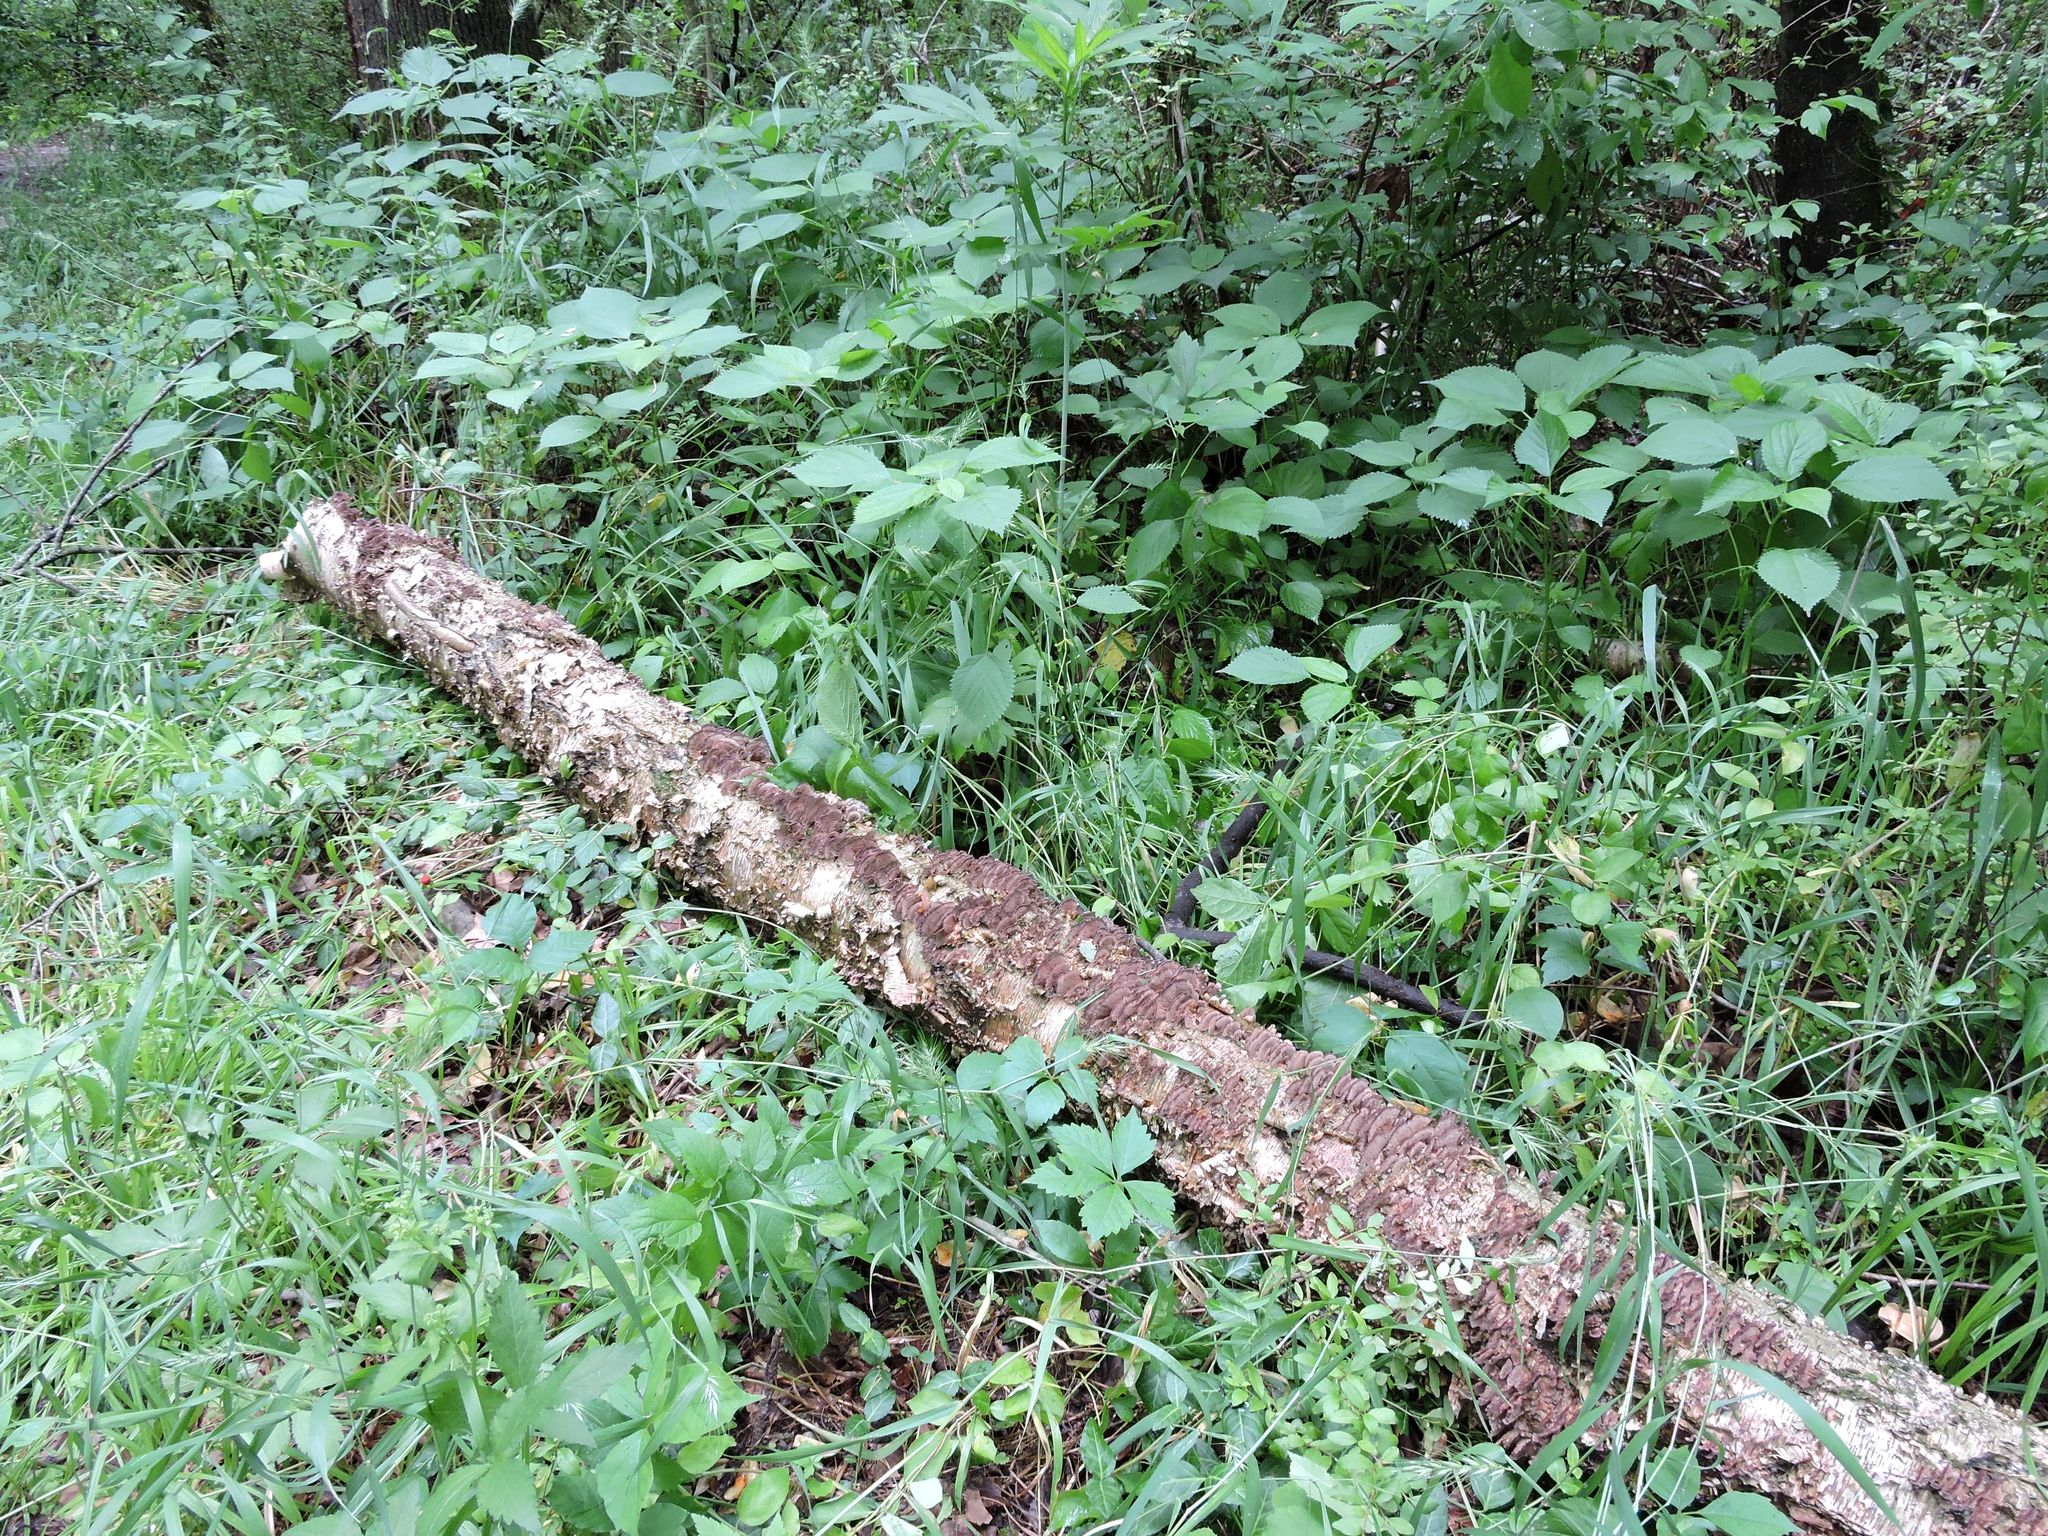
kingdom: Fungi
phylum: Basidiomycota
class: Agaricomycetes
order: Hymenochaetales
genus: Trichaptum
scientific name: Trichaptum biforme
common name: Violet-toothed polypore
